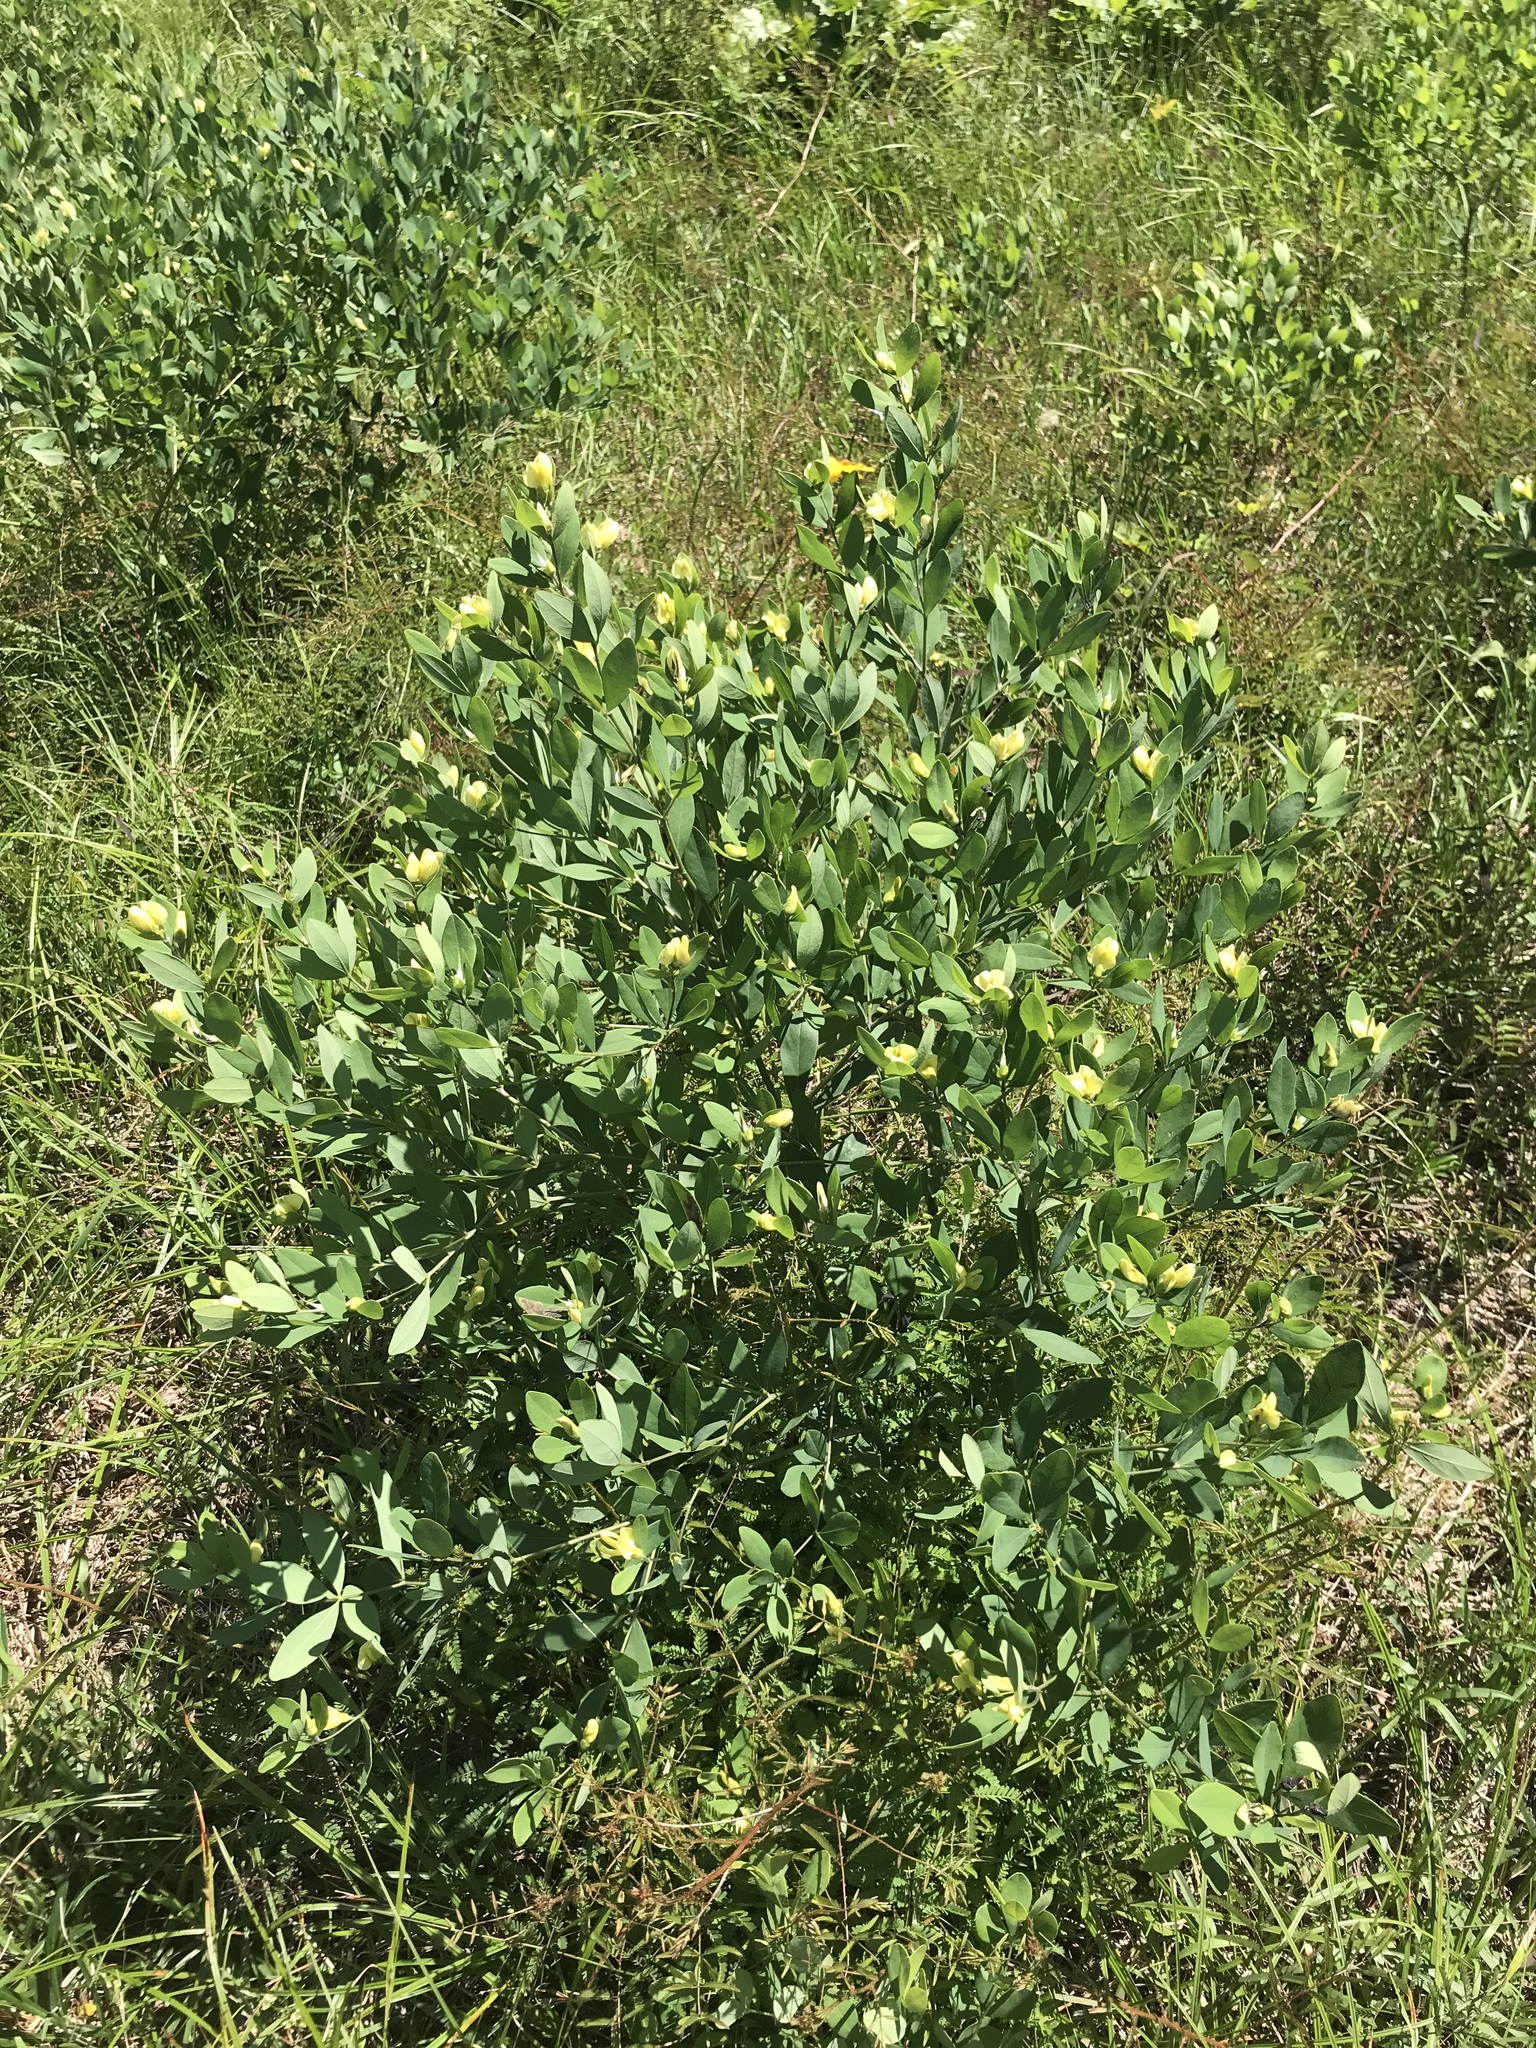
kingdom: Plantae
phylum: Tracheophyta
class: Magnoliopsida
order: Fabales
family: Fabaceae
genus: Baptisia
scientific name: Baptisia nuttalliana
